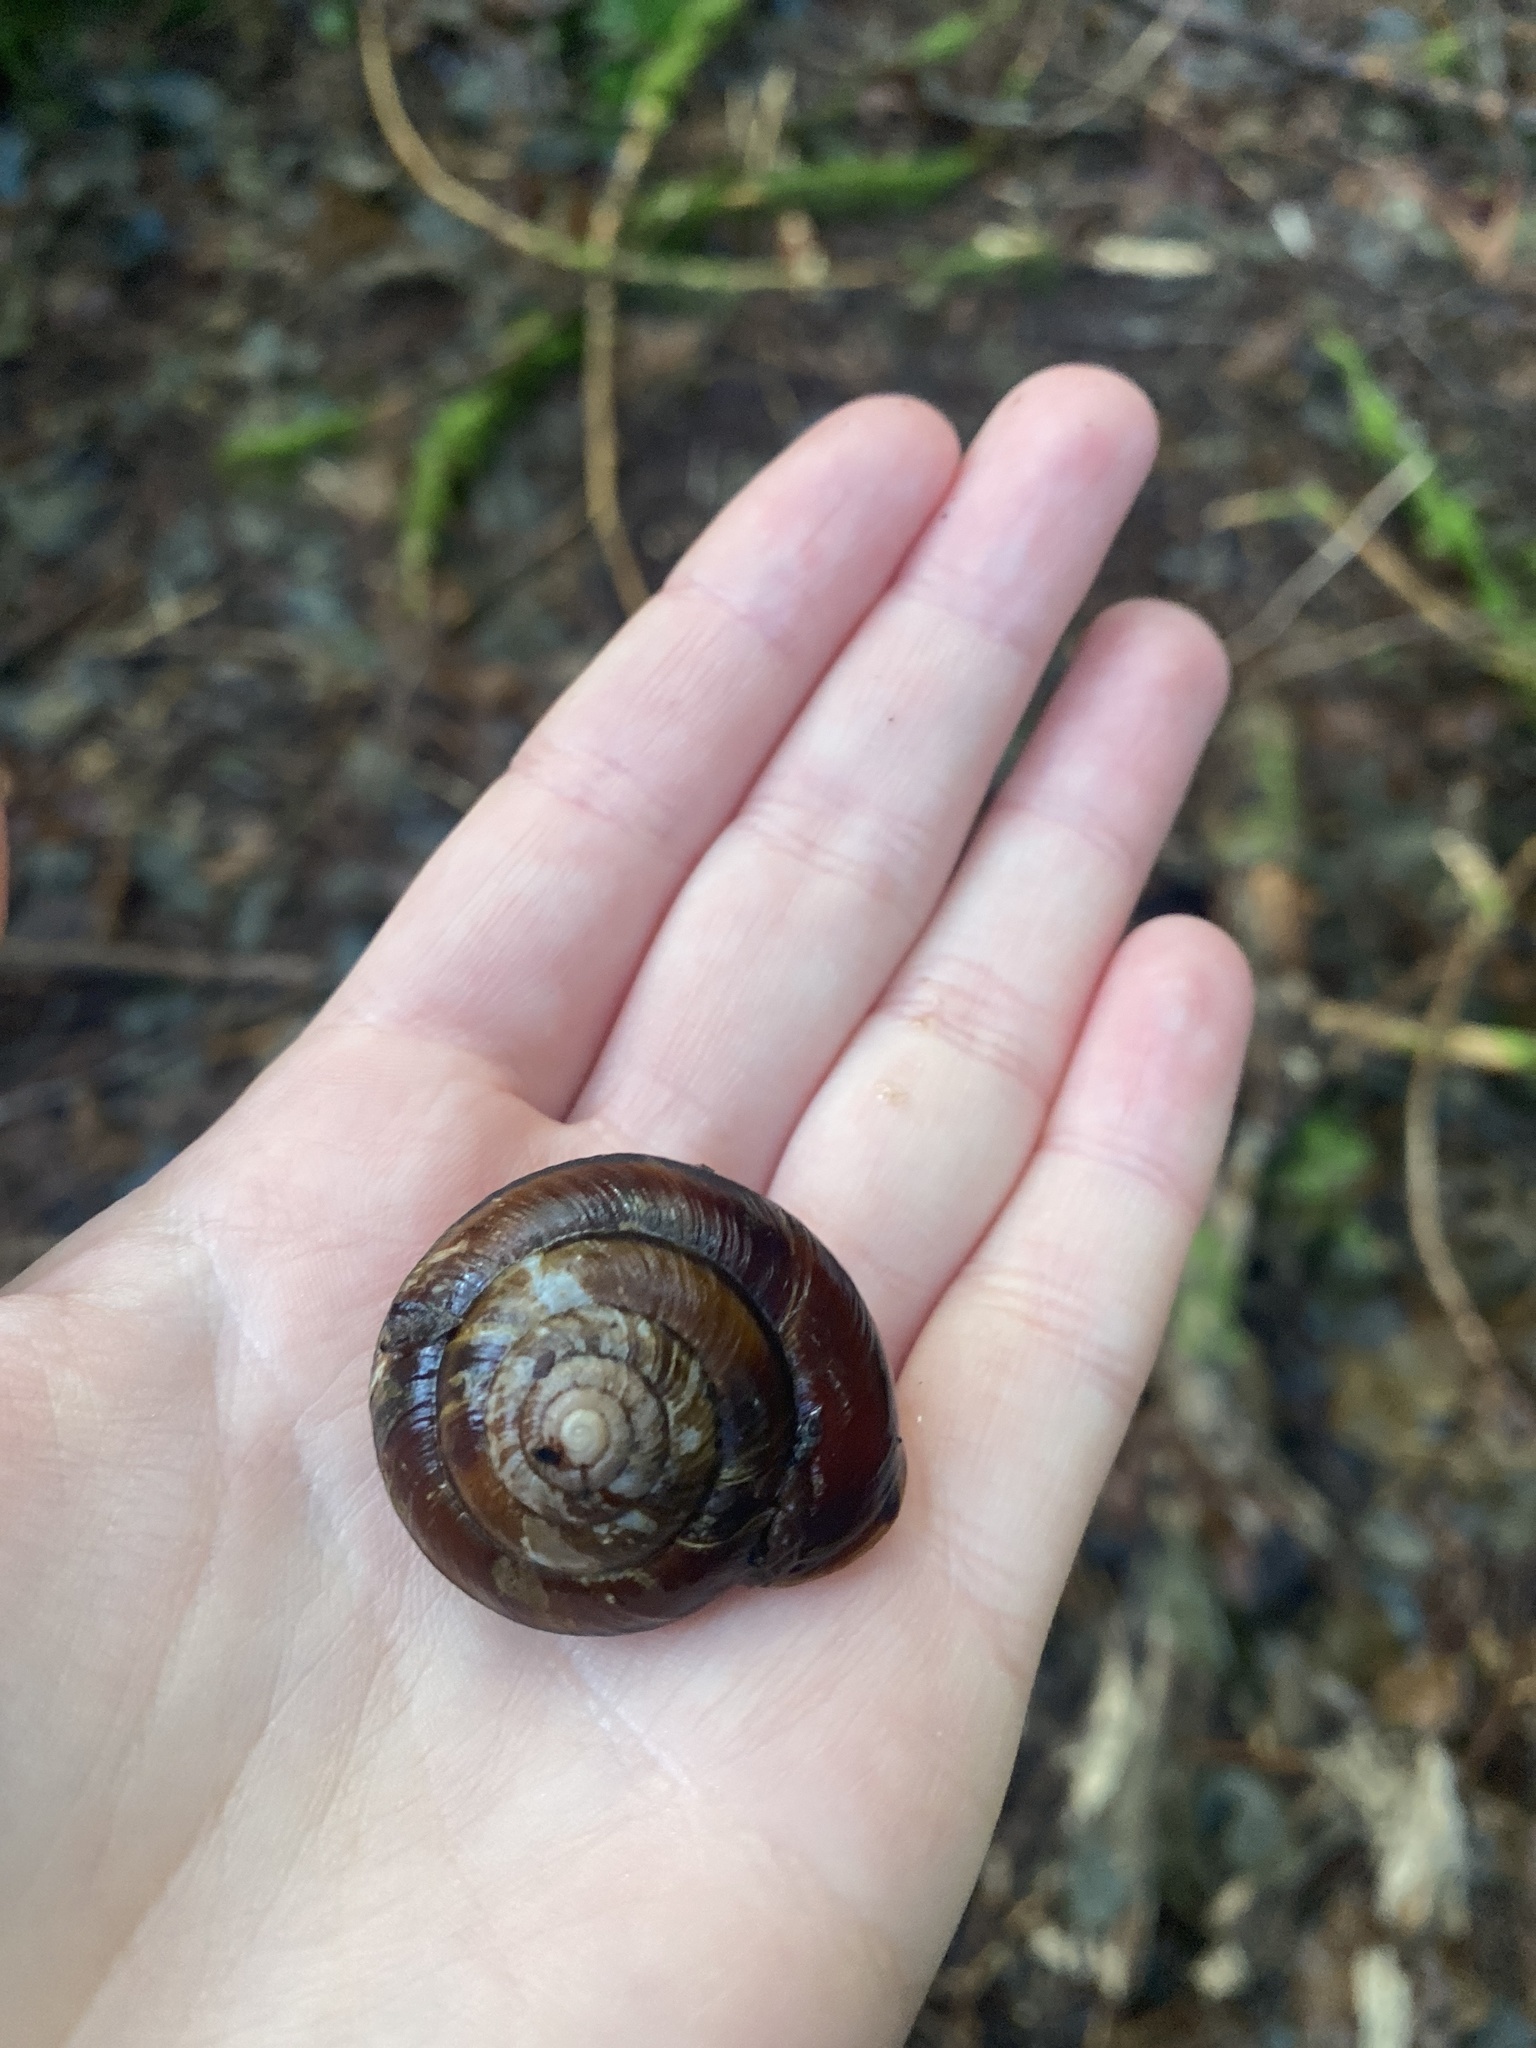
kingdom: Animalia
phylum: Mollusca
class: Gastropoda
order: Stylommatophora
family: Xanthonychidae
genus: Monadenia
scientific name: Monadenia fidelis
